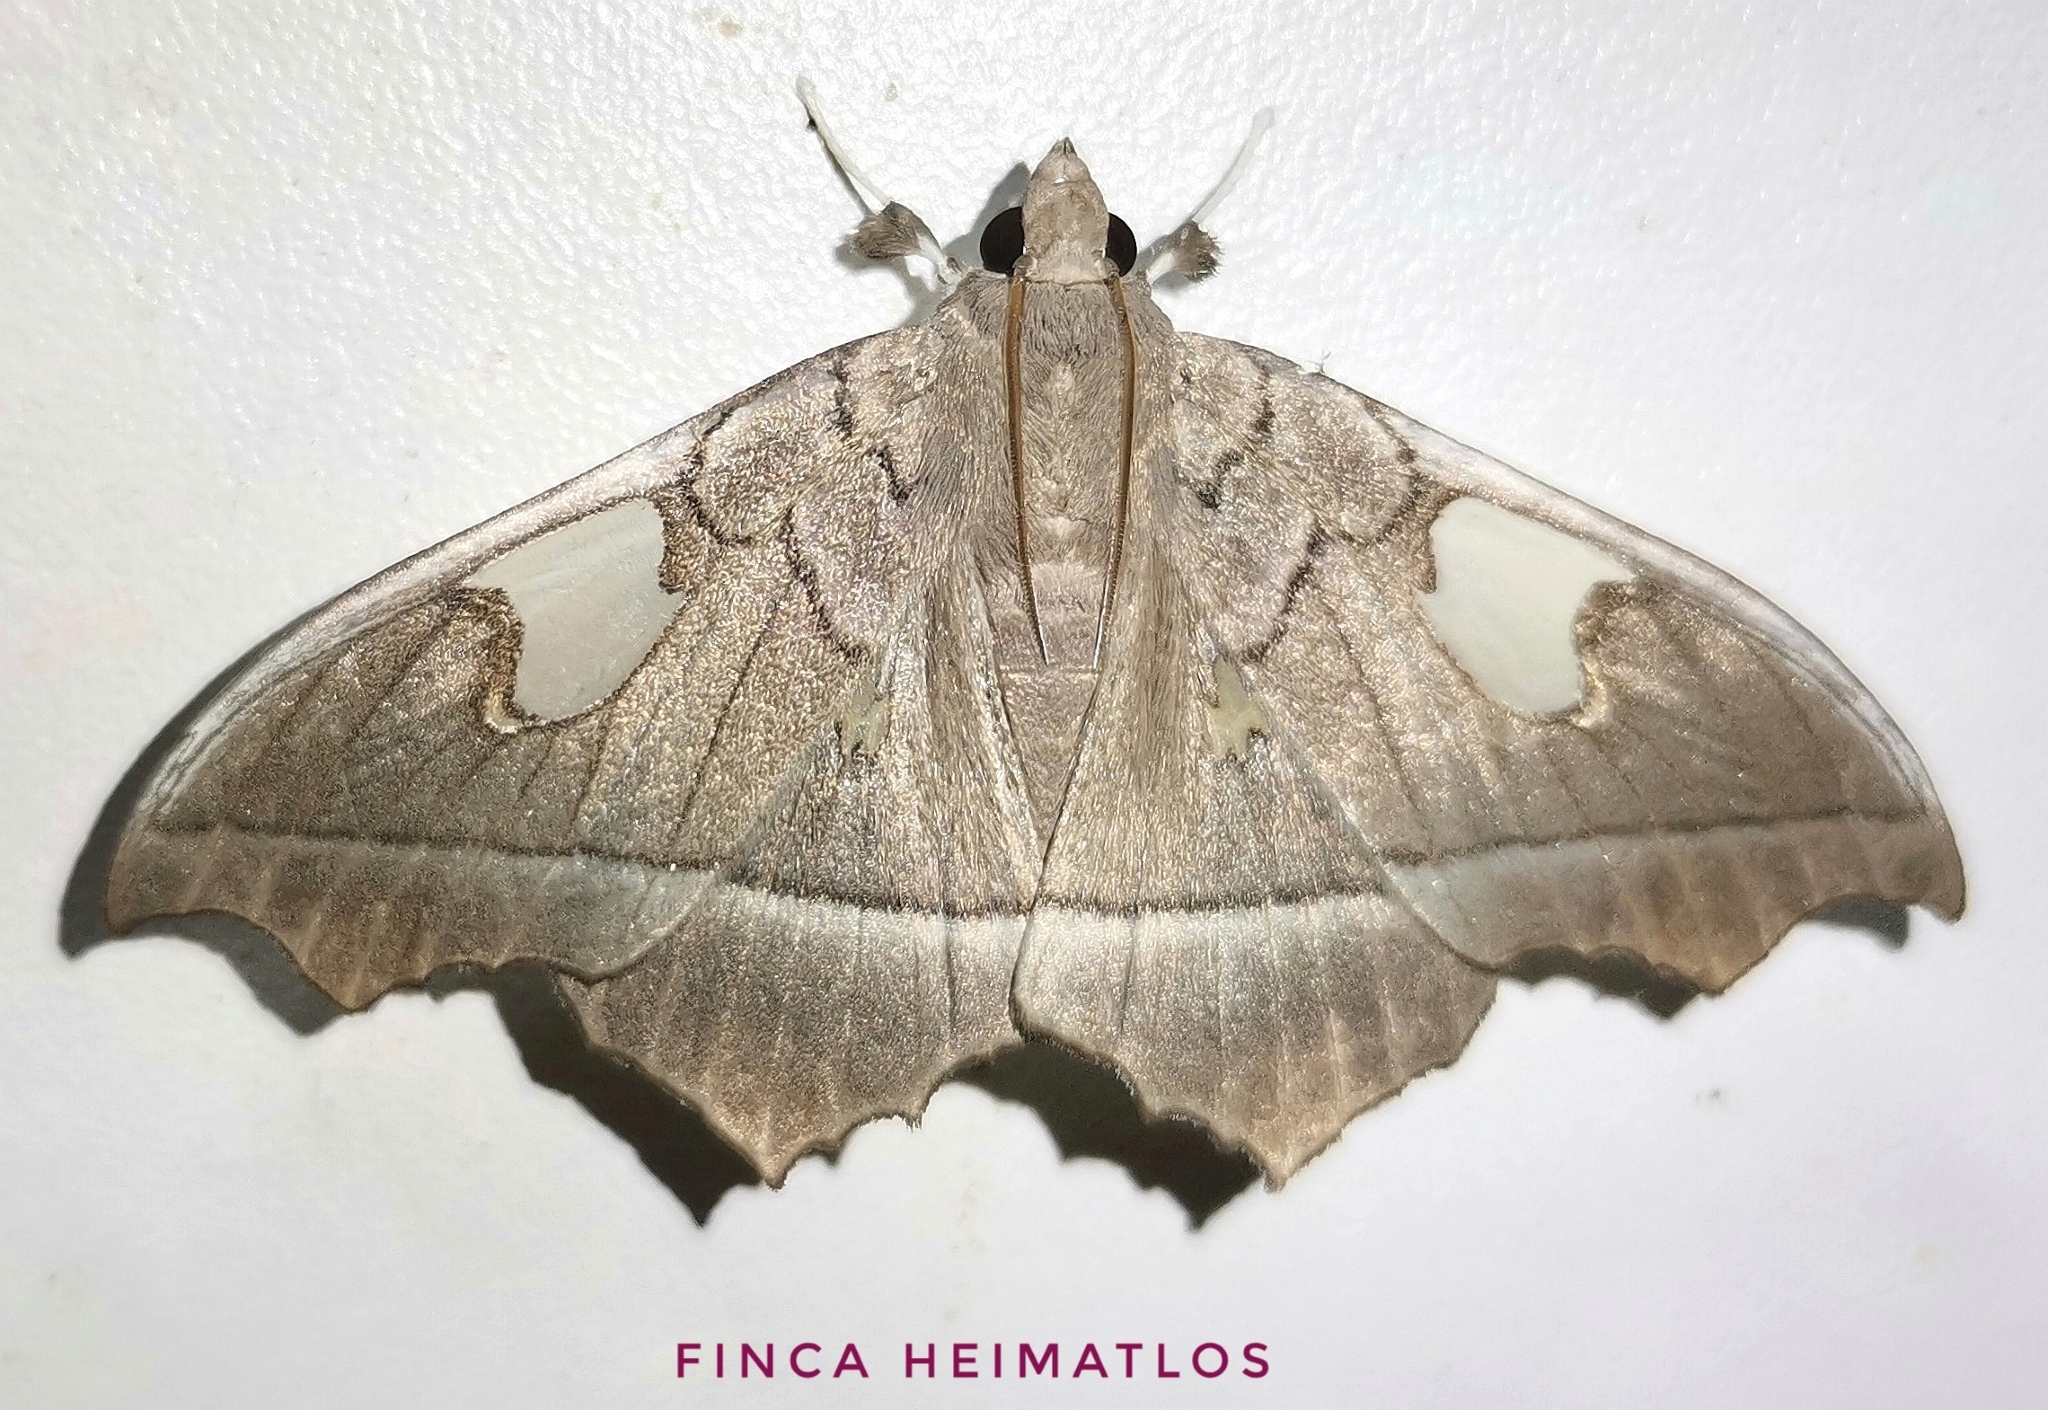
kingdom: Animalia
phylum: Arthropoda
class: Insecta
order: Lepidoptera
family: Crambidae
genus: Midila
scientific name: Midila quadrifenestrata
